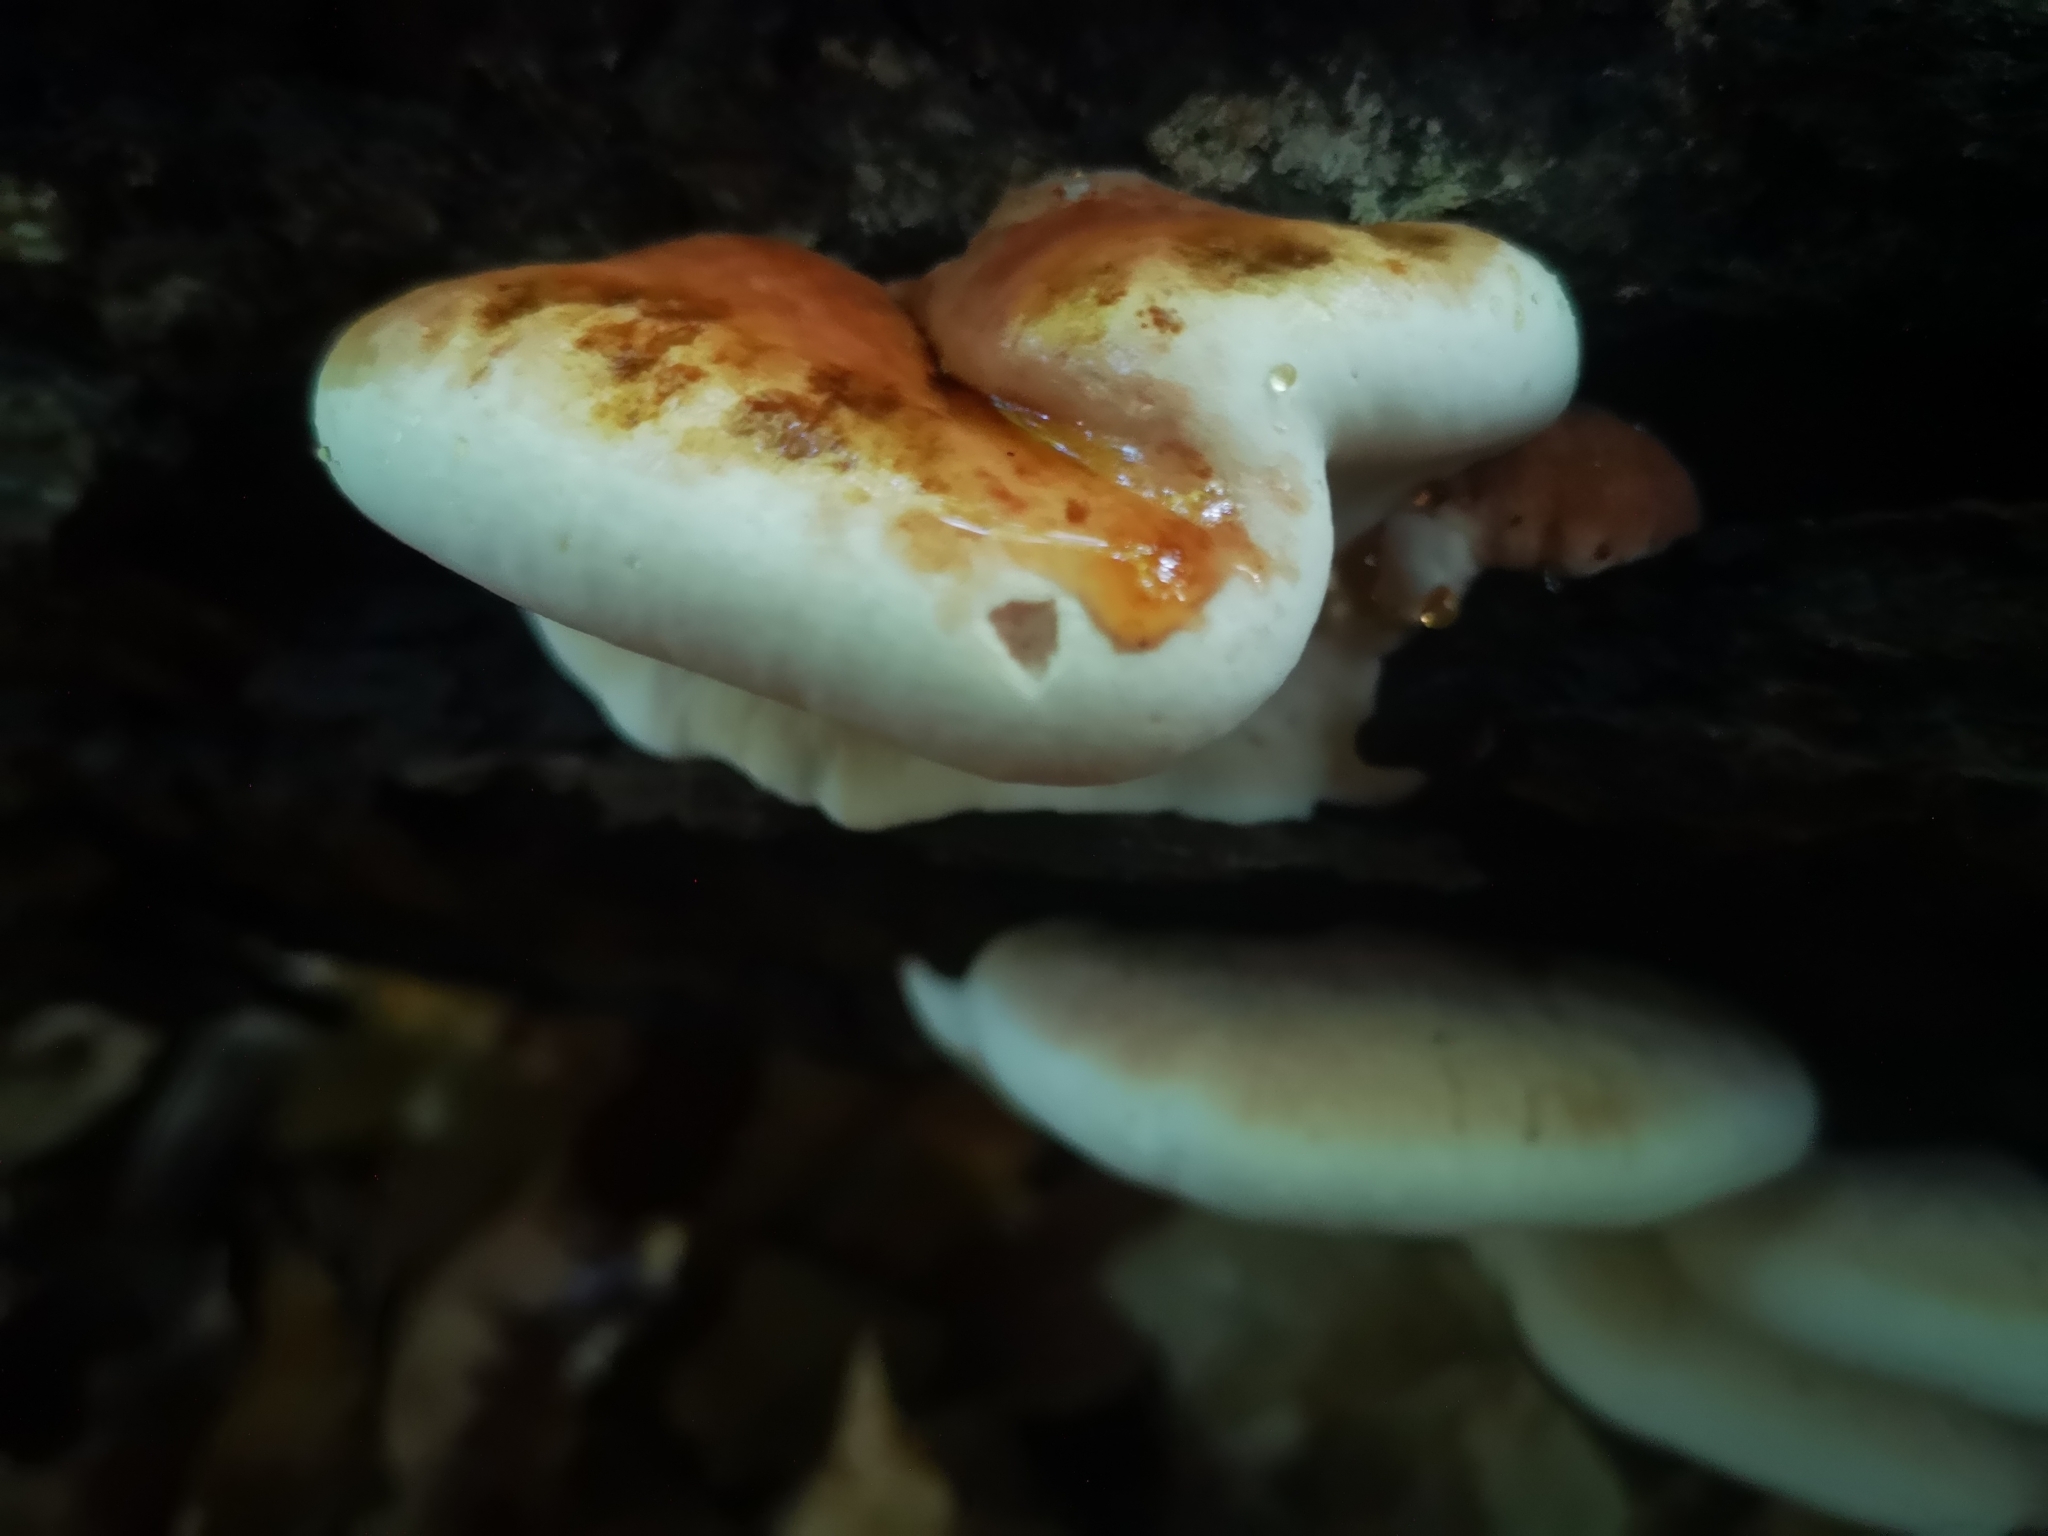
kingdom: Fungi
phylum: Basidiomycota
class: Agaricomycetes
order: Polyporales
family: Ischnodermataceae
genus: Ischnoderma
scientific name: Ischnoderma resinosum
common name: Resinous polypore
